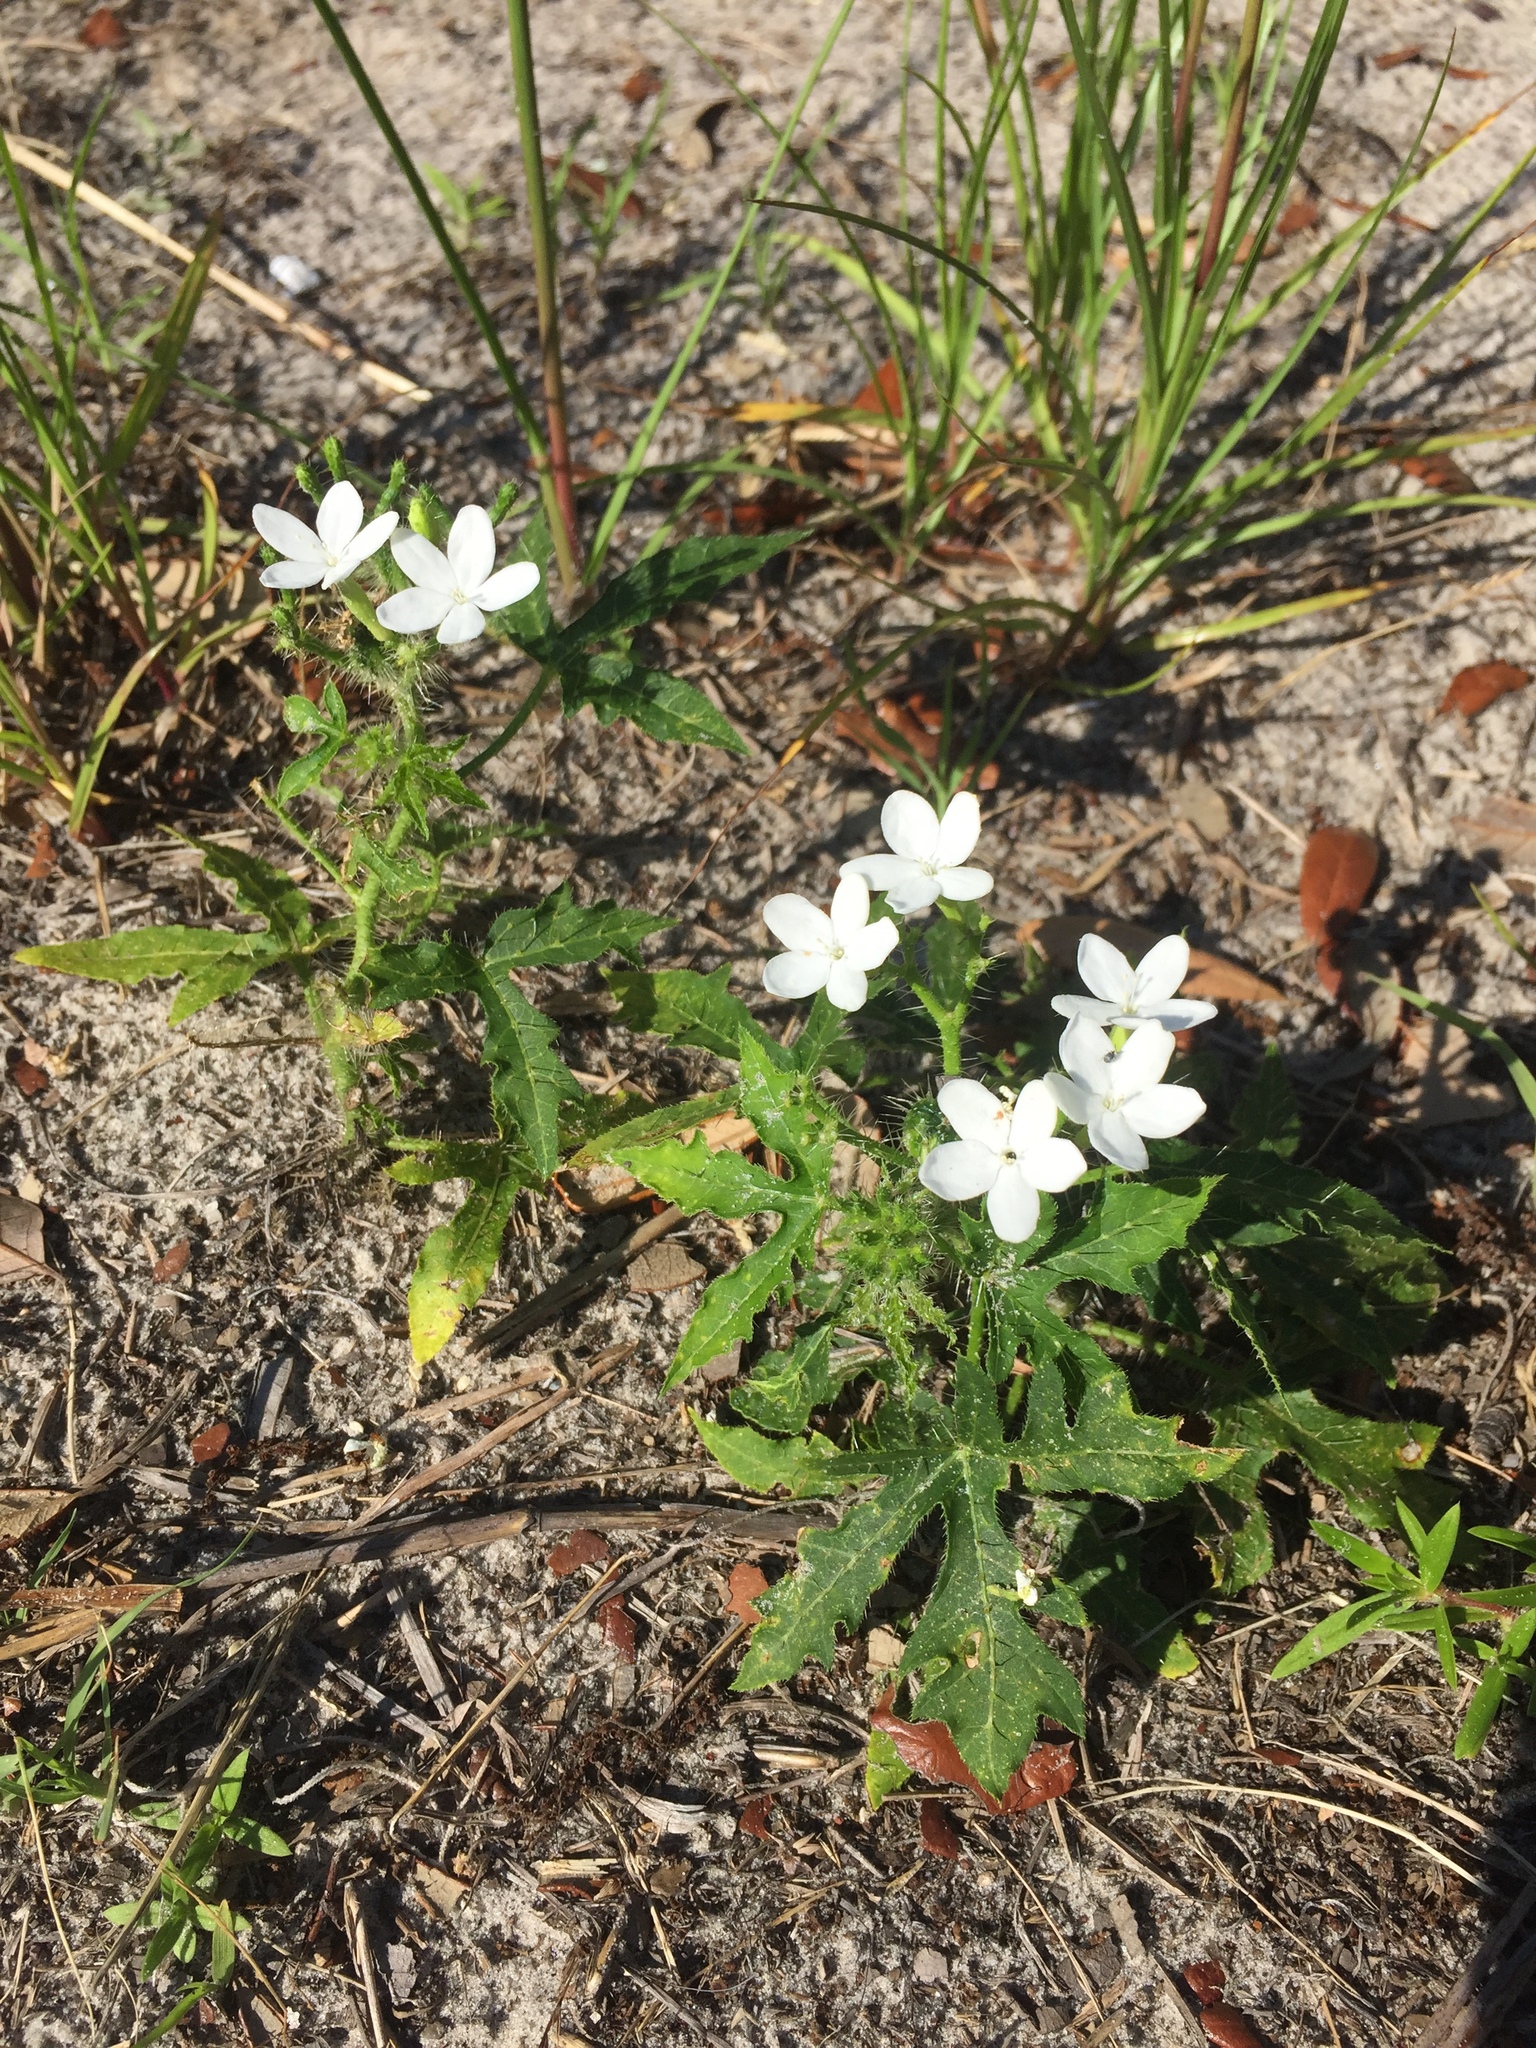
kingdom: Plantae
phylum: Tracheophyta
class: Magnoliopsida
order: Malpighiales
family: Euphorbiaceae
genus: Cnidoscolus
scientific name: Cnidoscolus stimulosus
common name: Bull-nettle
